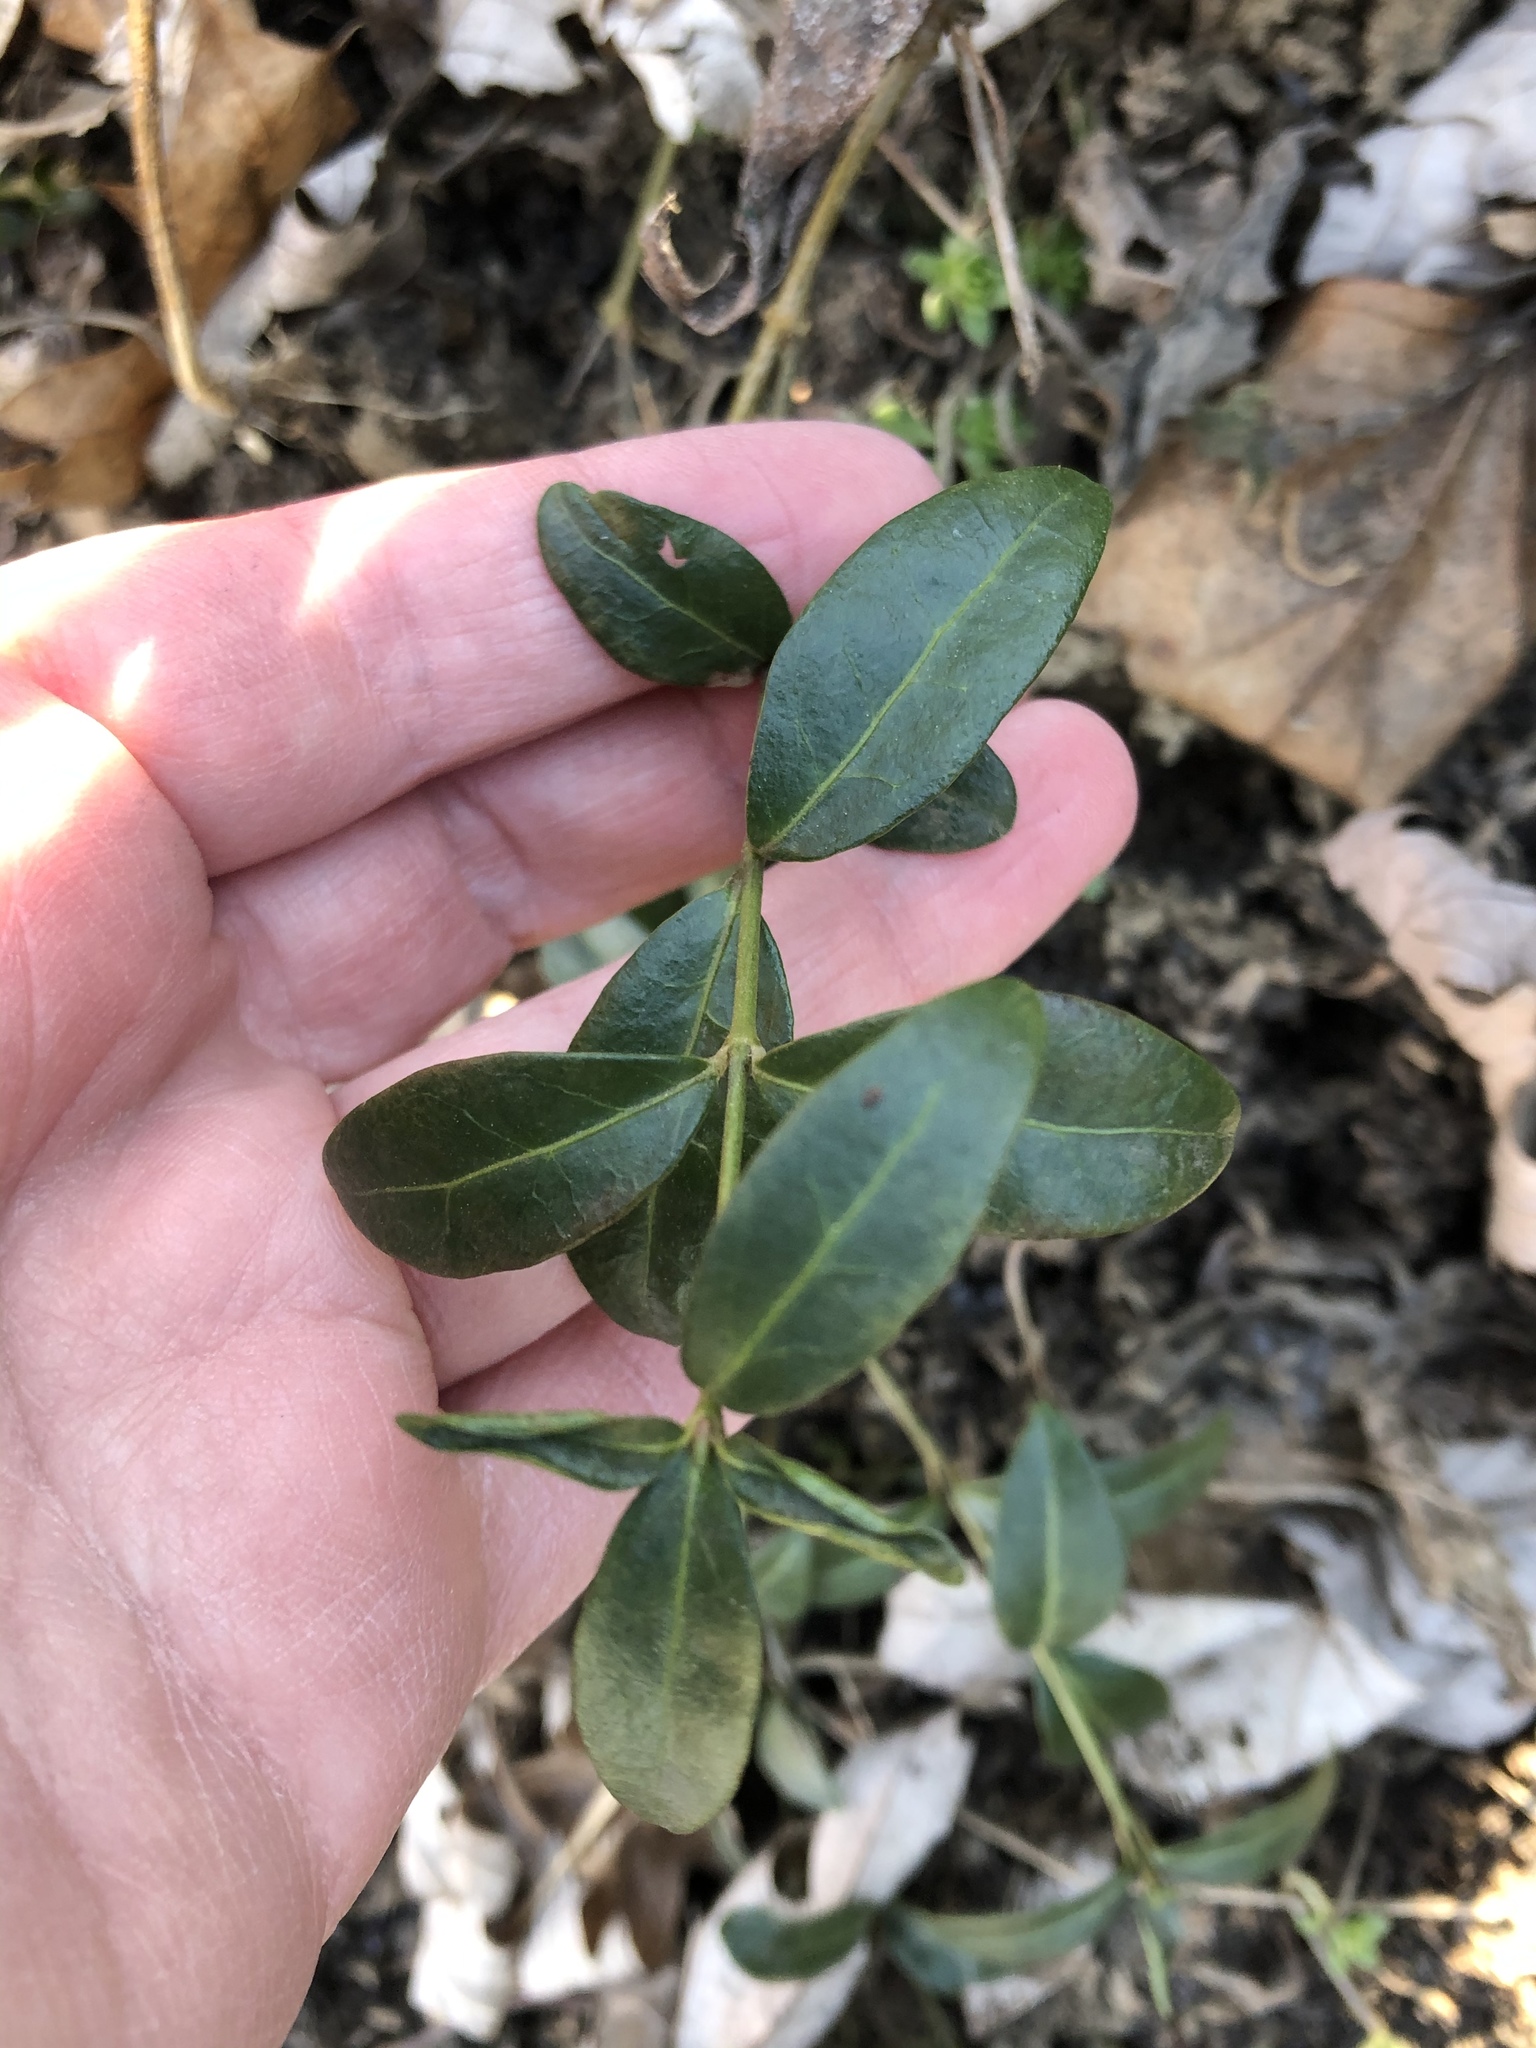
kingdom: Plantae
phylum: Tracheophyta
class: Magnoliopsida
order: Gentianales
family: Apocynaceae
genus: Vinca
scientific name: Vinca minor
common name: Lesser periwinkle
